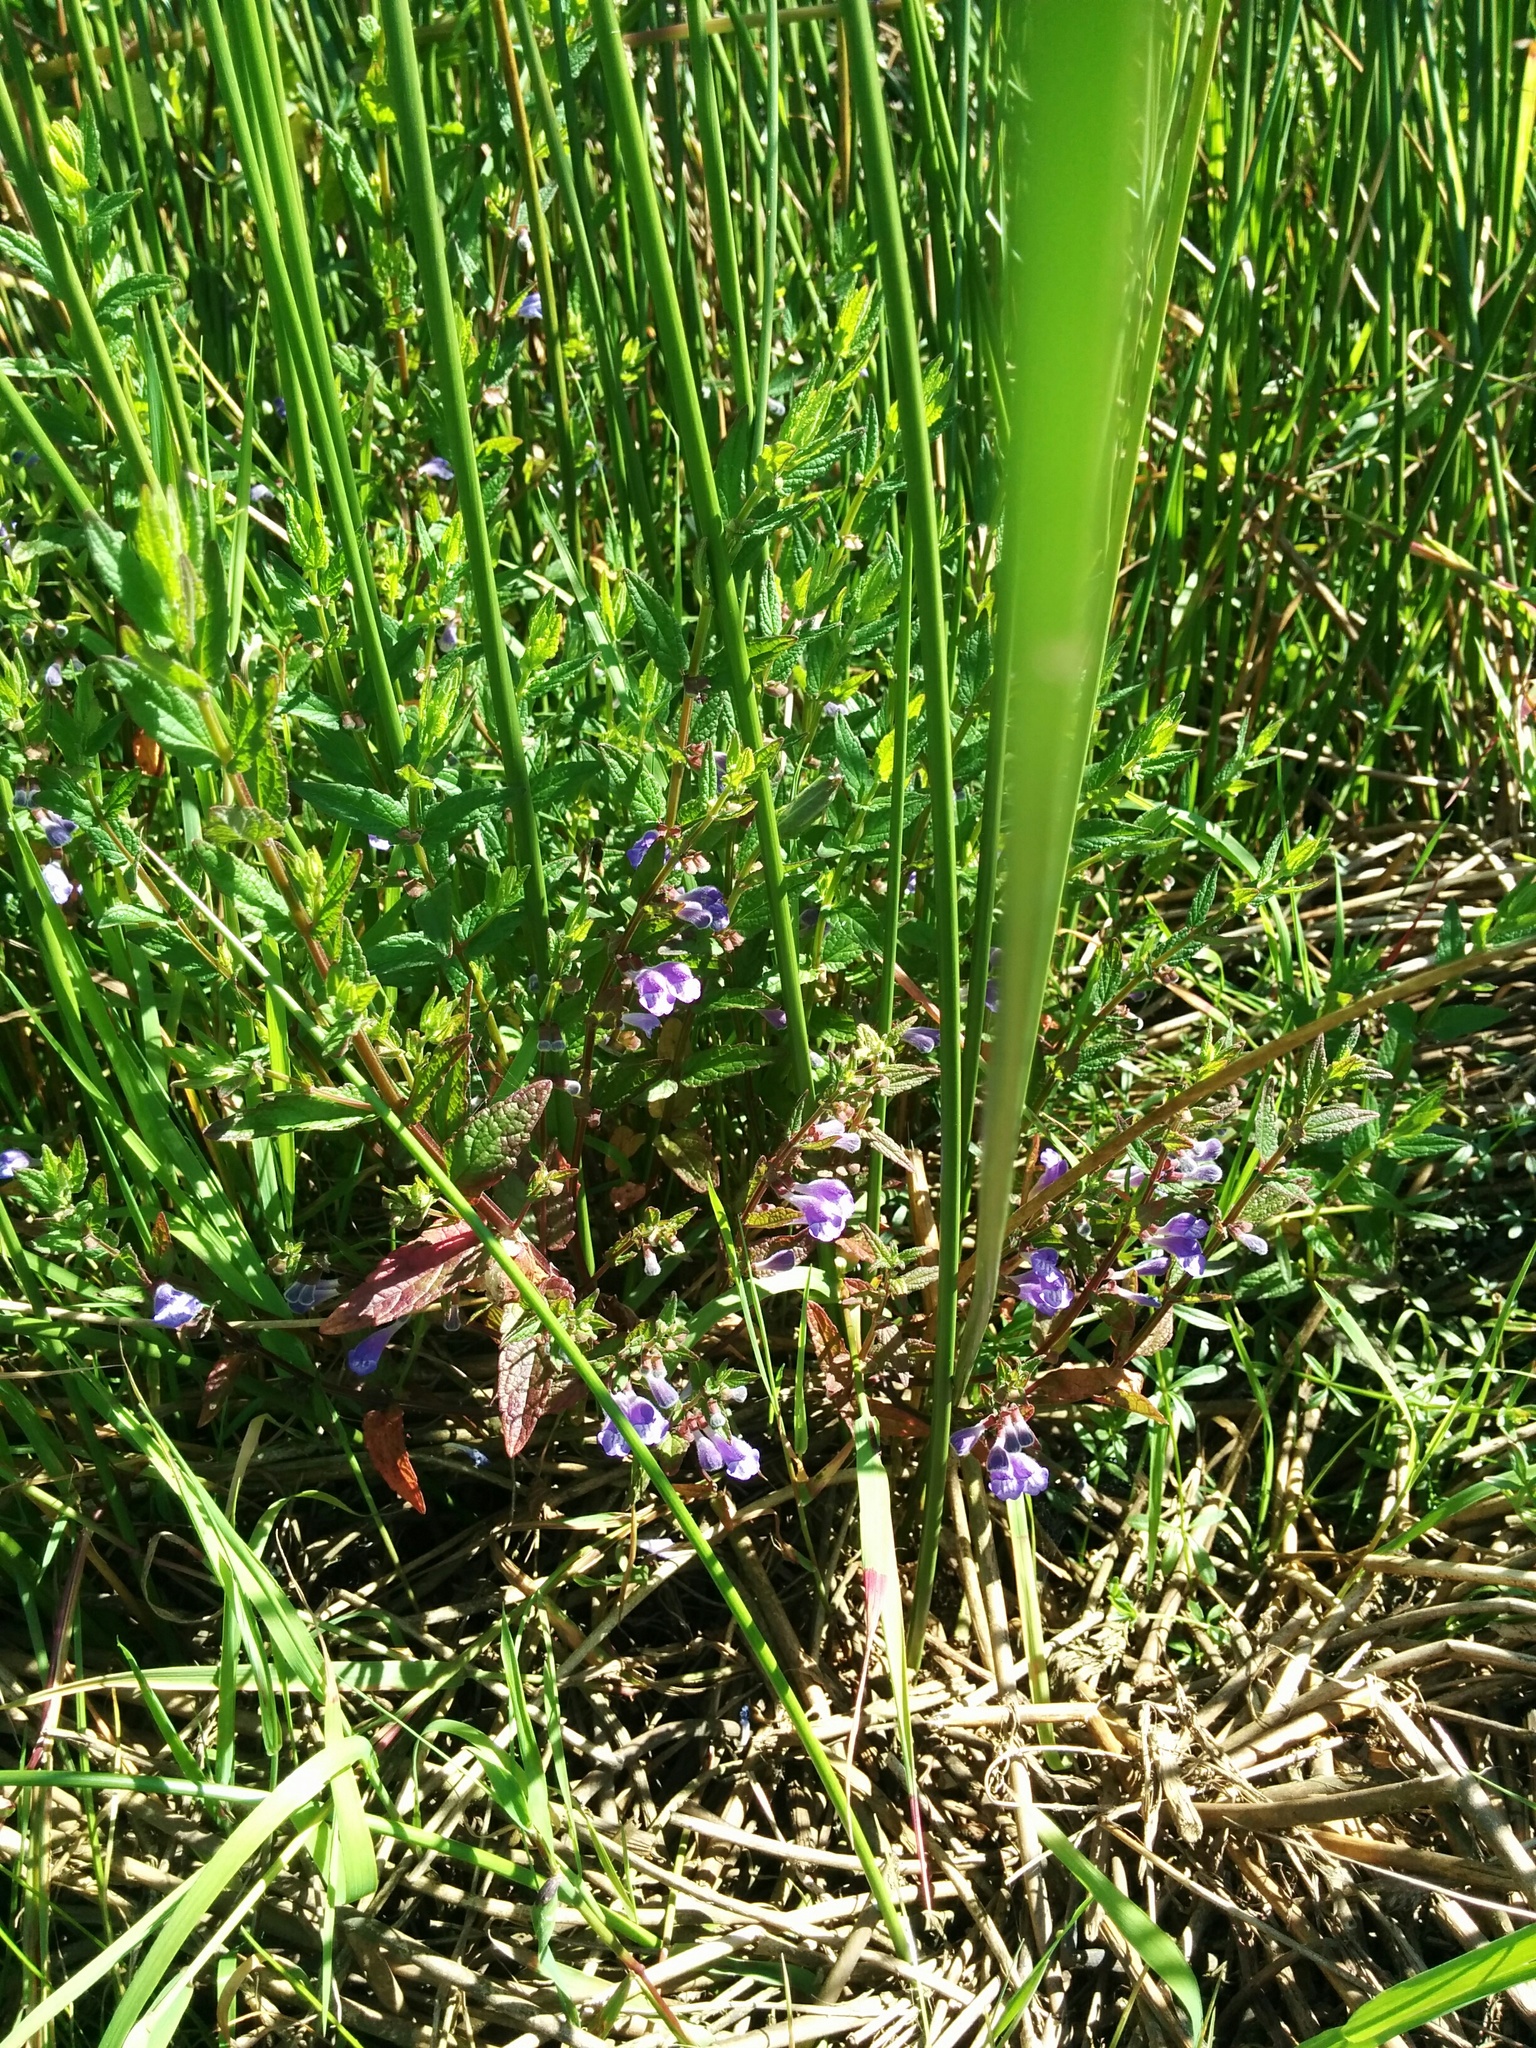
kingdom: Plantae
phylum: Tracheophyta
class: Magnoliopsida
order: Lamiales
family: Lamiaceae
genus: Scutellaria
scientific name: Scutellaria galericulata
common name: Skullcap
